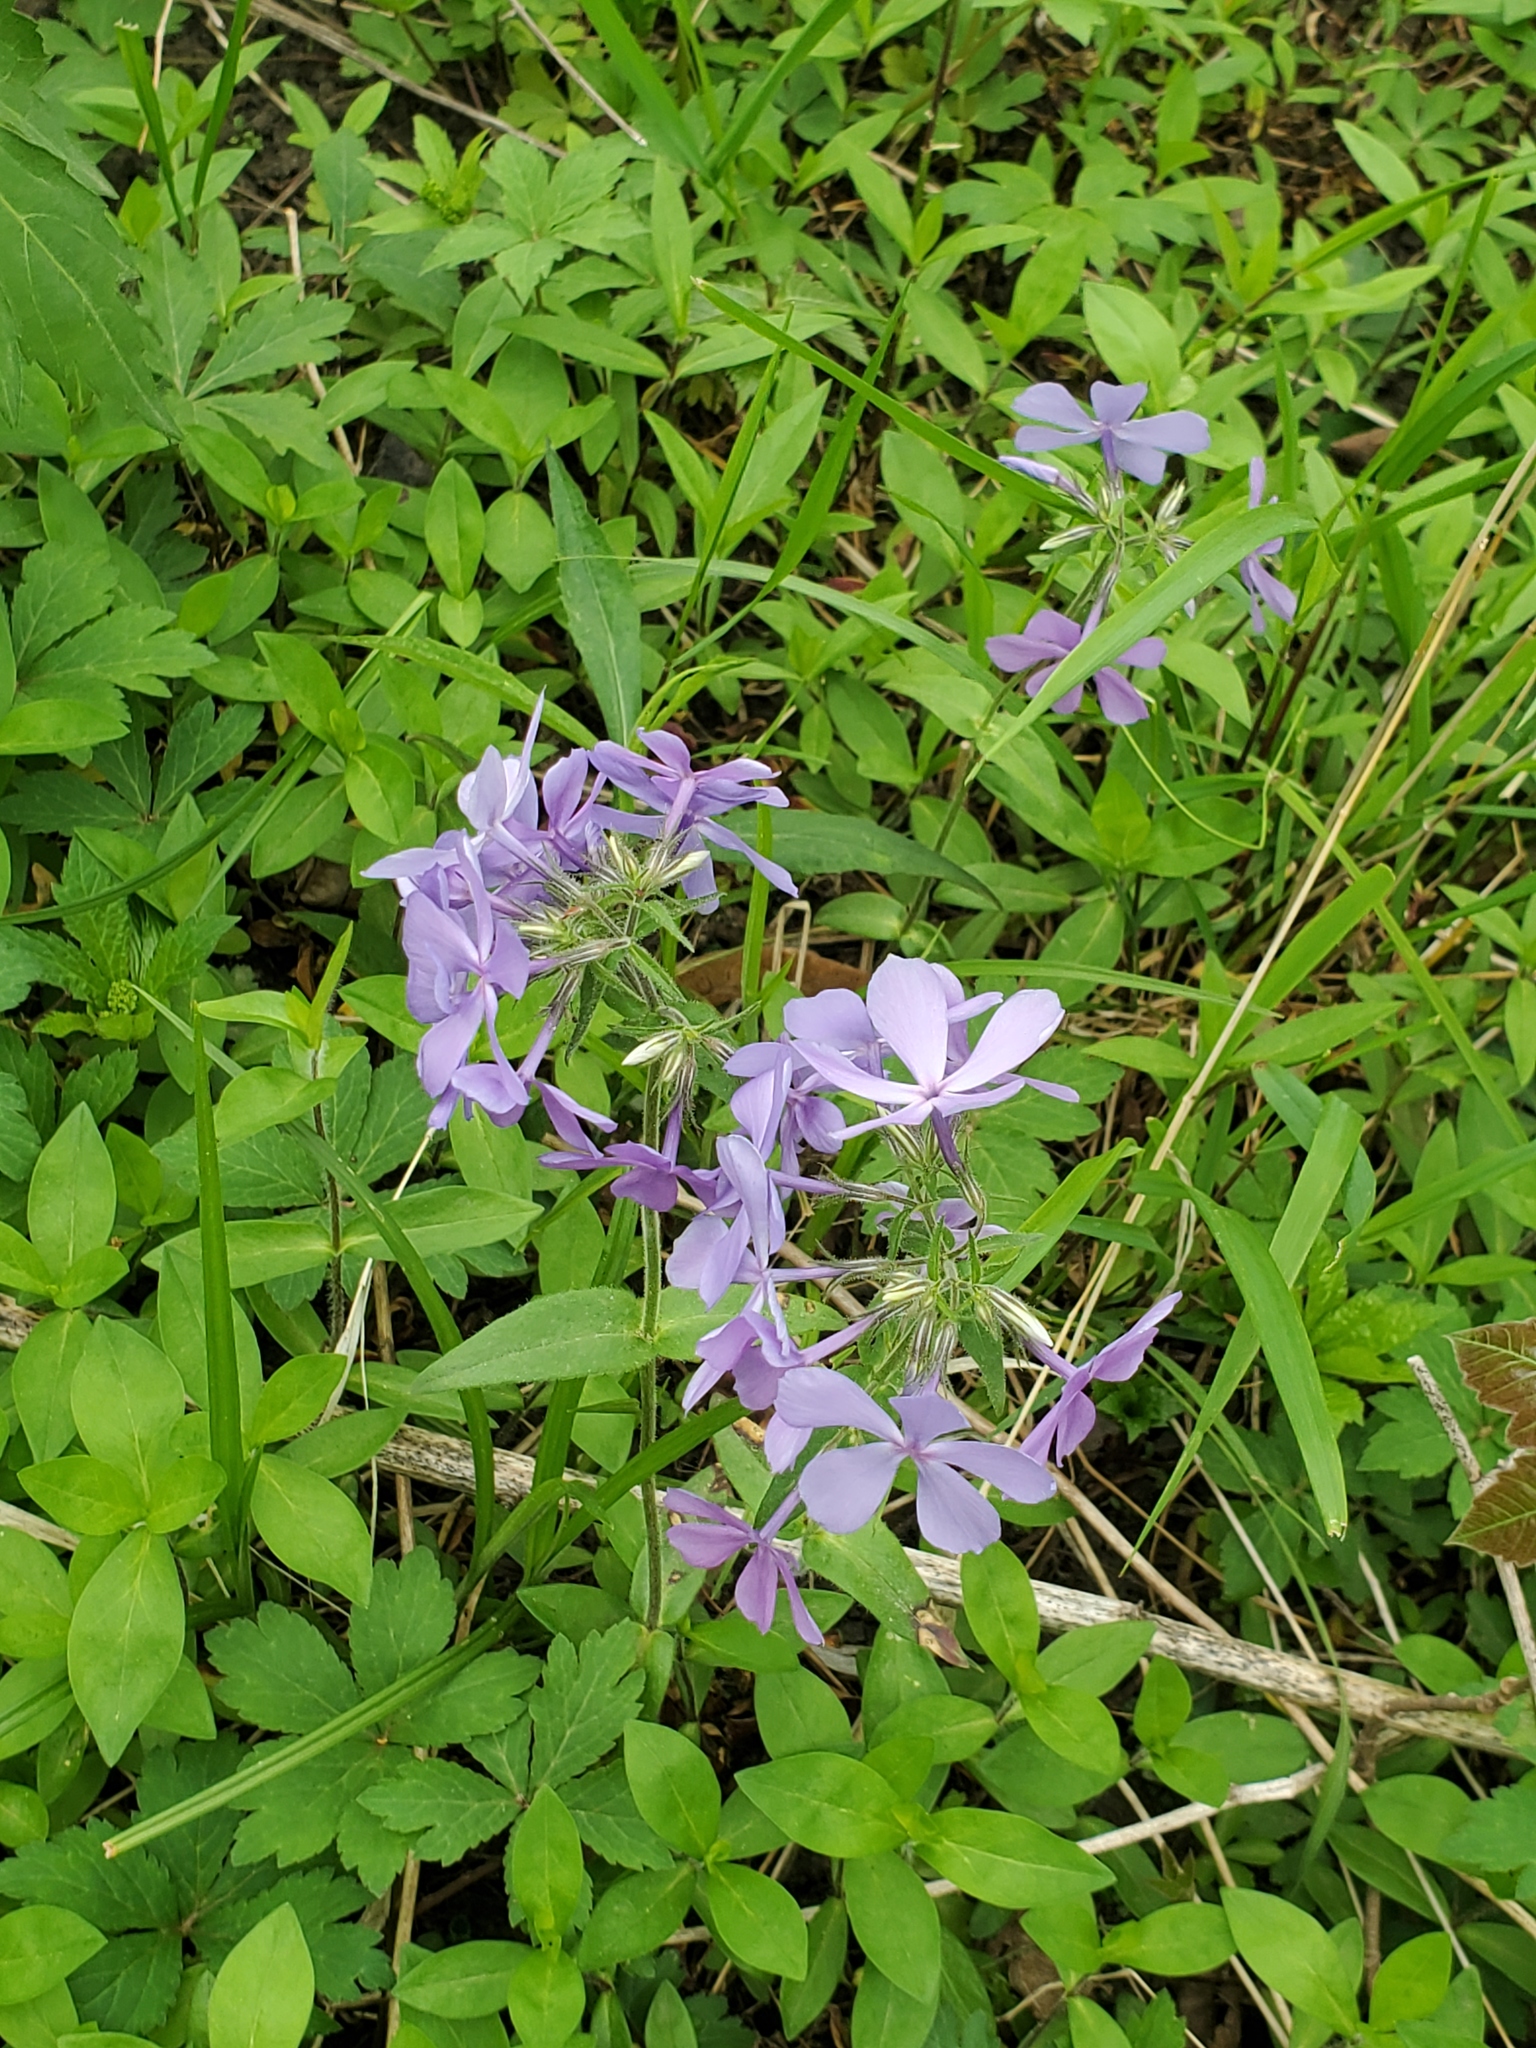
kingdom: Plantae
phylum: Tracheophyta
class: Magnoliopsida
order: Ericales
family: Polemoniaceae
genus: Phlox
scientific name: Phlox divaricata
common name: Blue phlox
